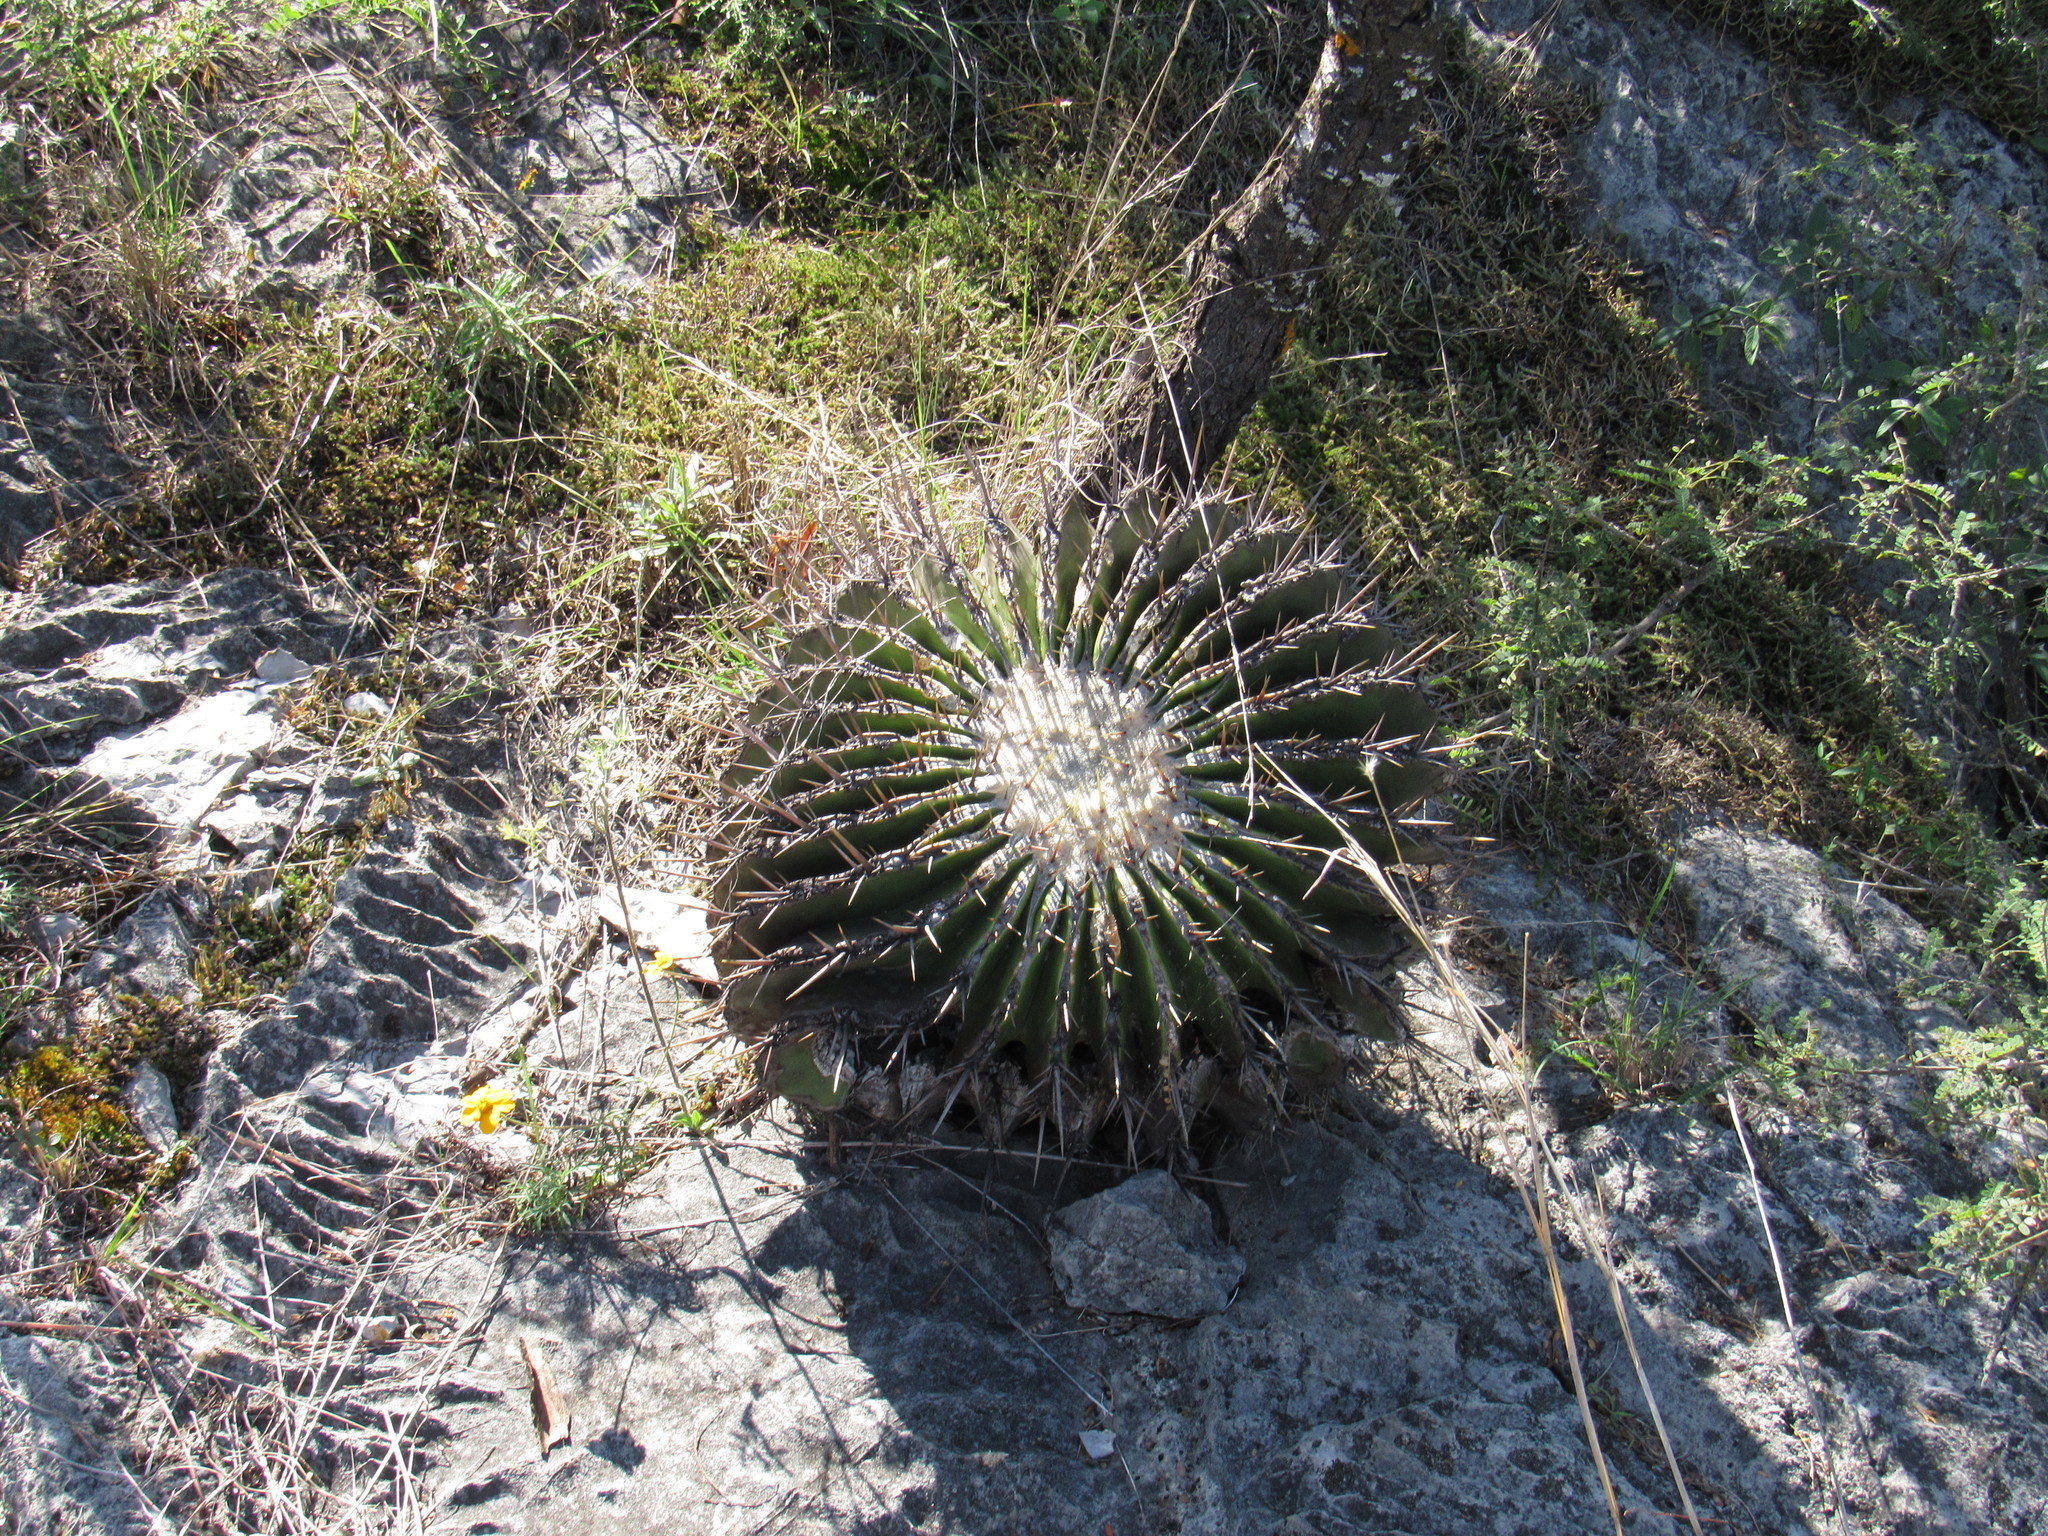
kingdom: Plantae
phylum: Tracheophyta
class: Magnoliopsida
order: Caryophyllales
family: Cactaceae
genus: Echinocactus
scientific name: Echinocactus platyacanthus
